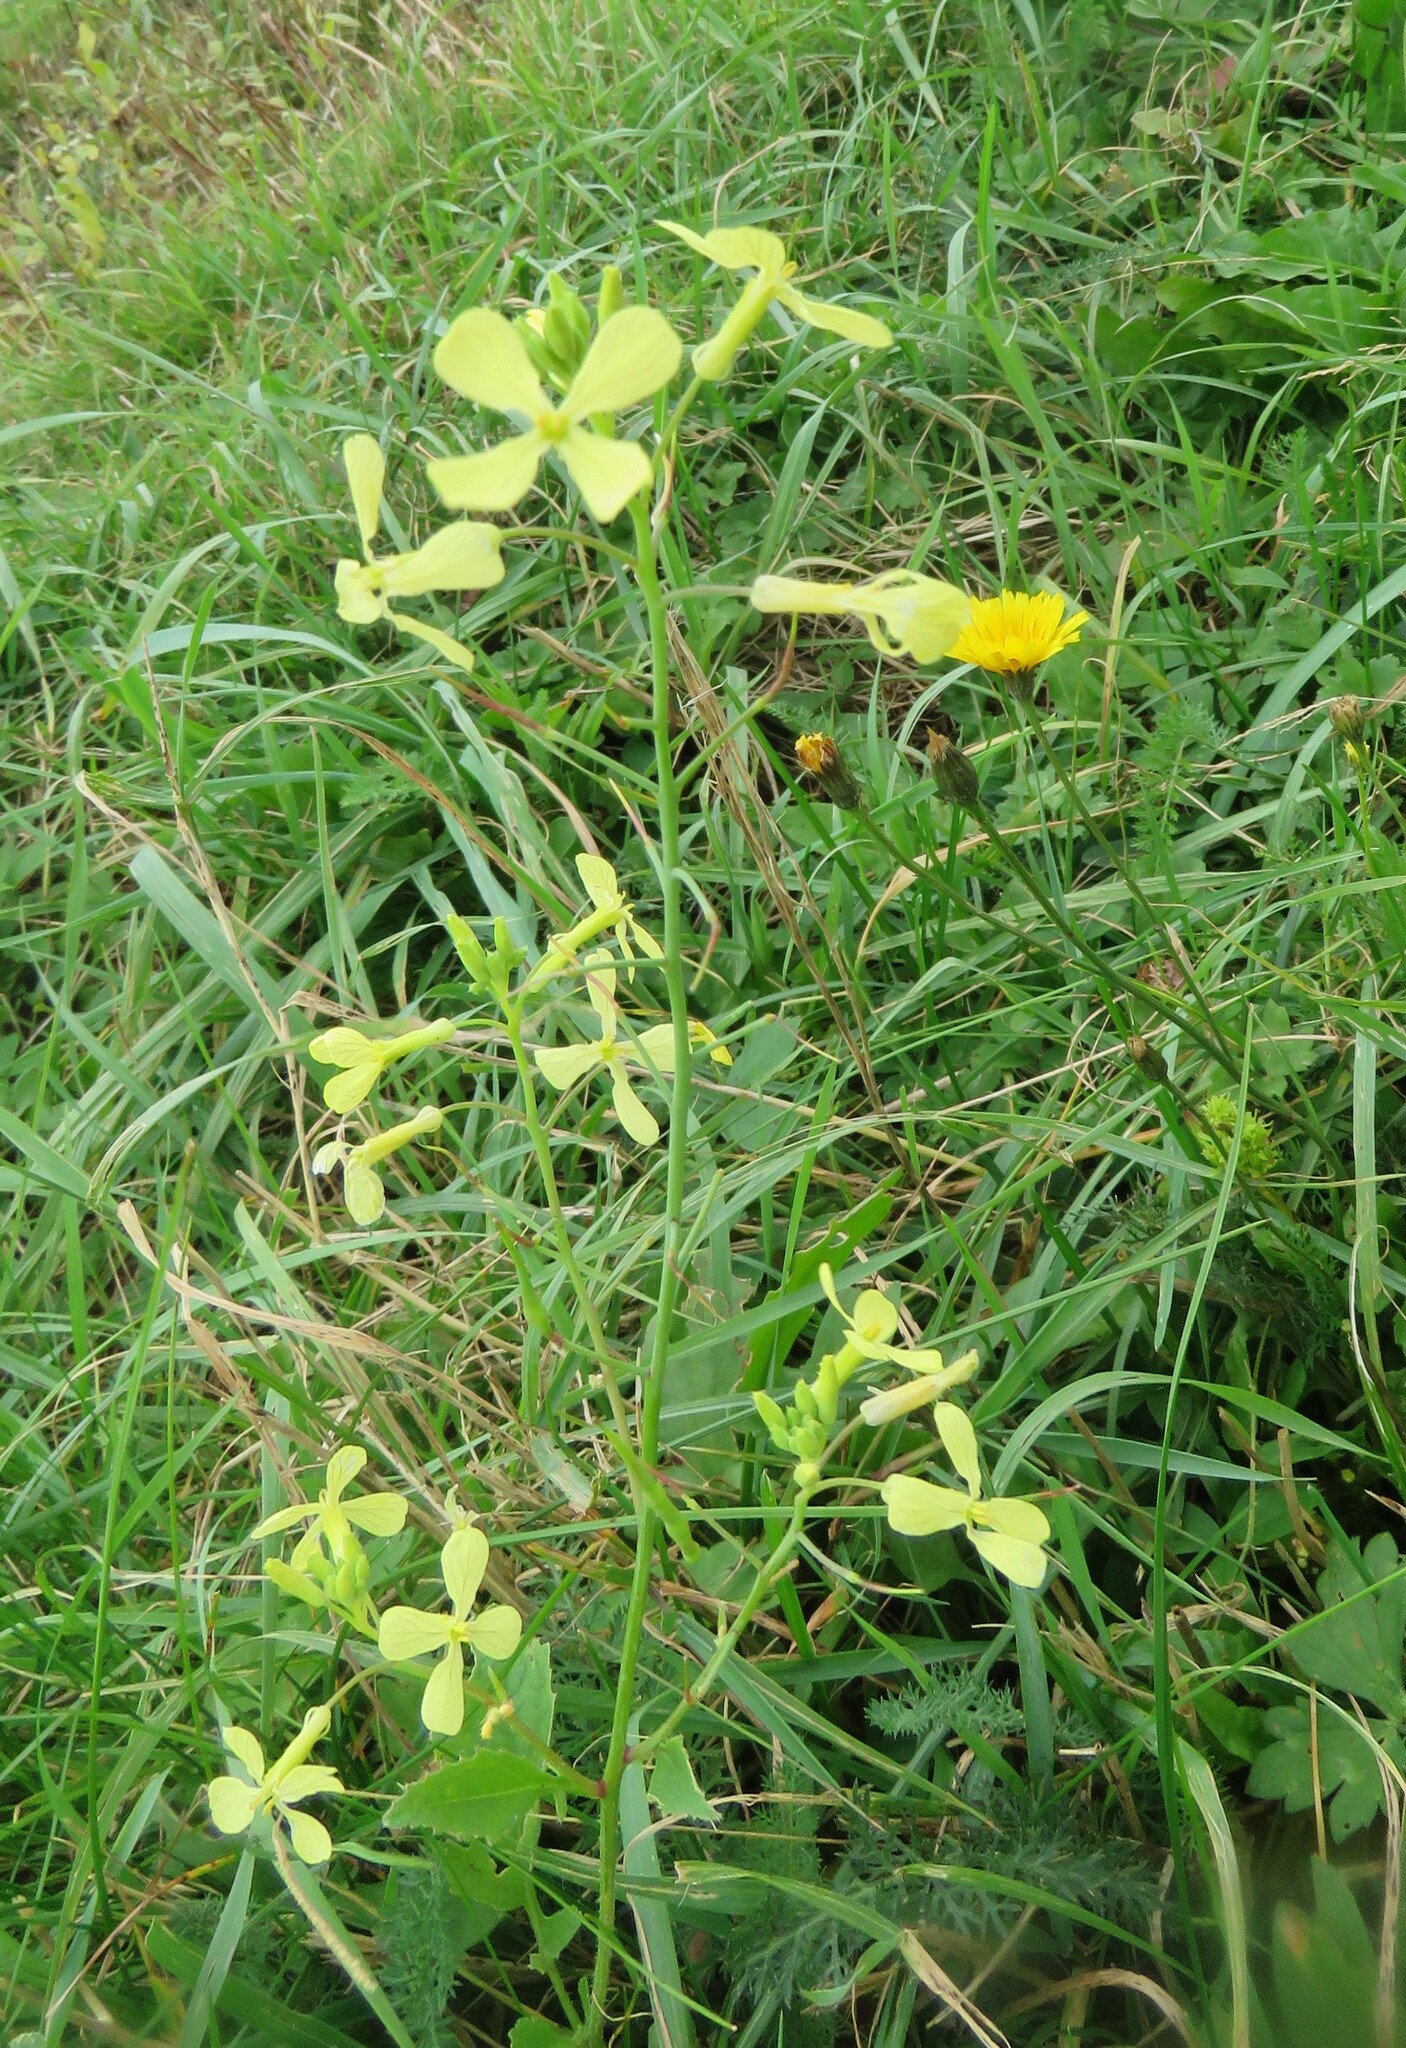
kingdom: Plantae
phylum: Tracheophyta
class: Magnoliopsida
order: Brassicales
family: Brassicaceae
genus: Raphanus
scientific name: Raphanus raphanistrum
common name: Wild radish
